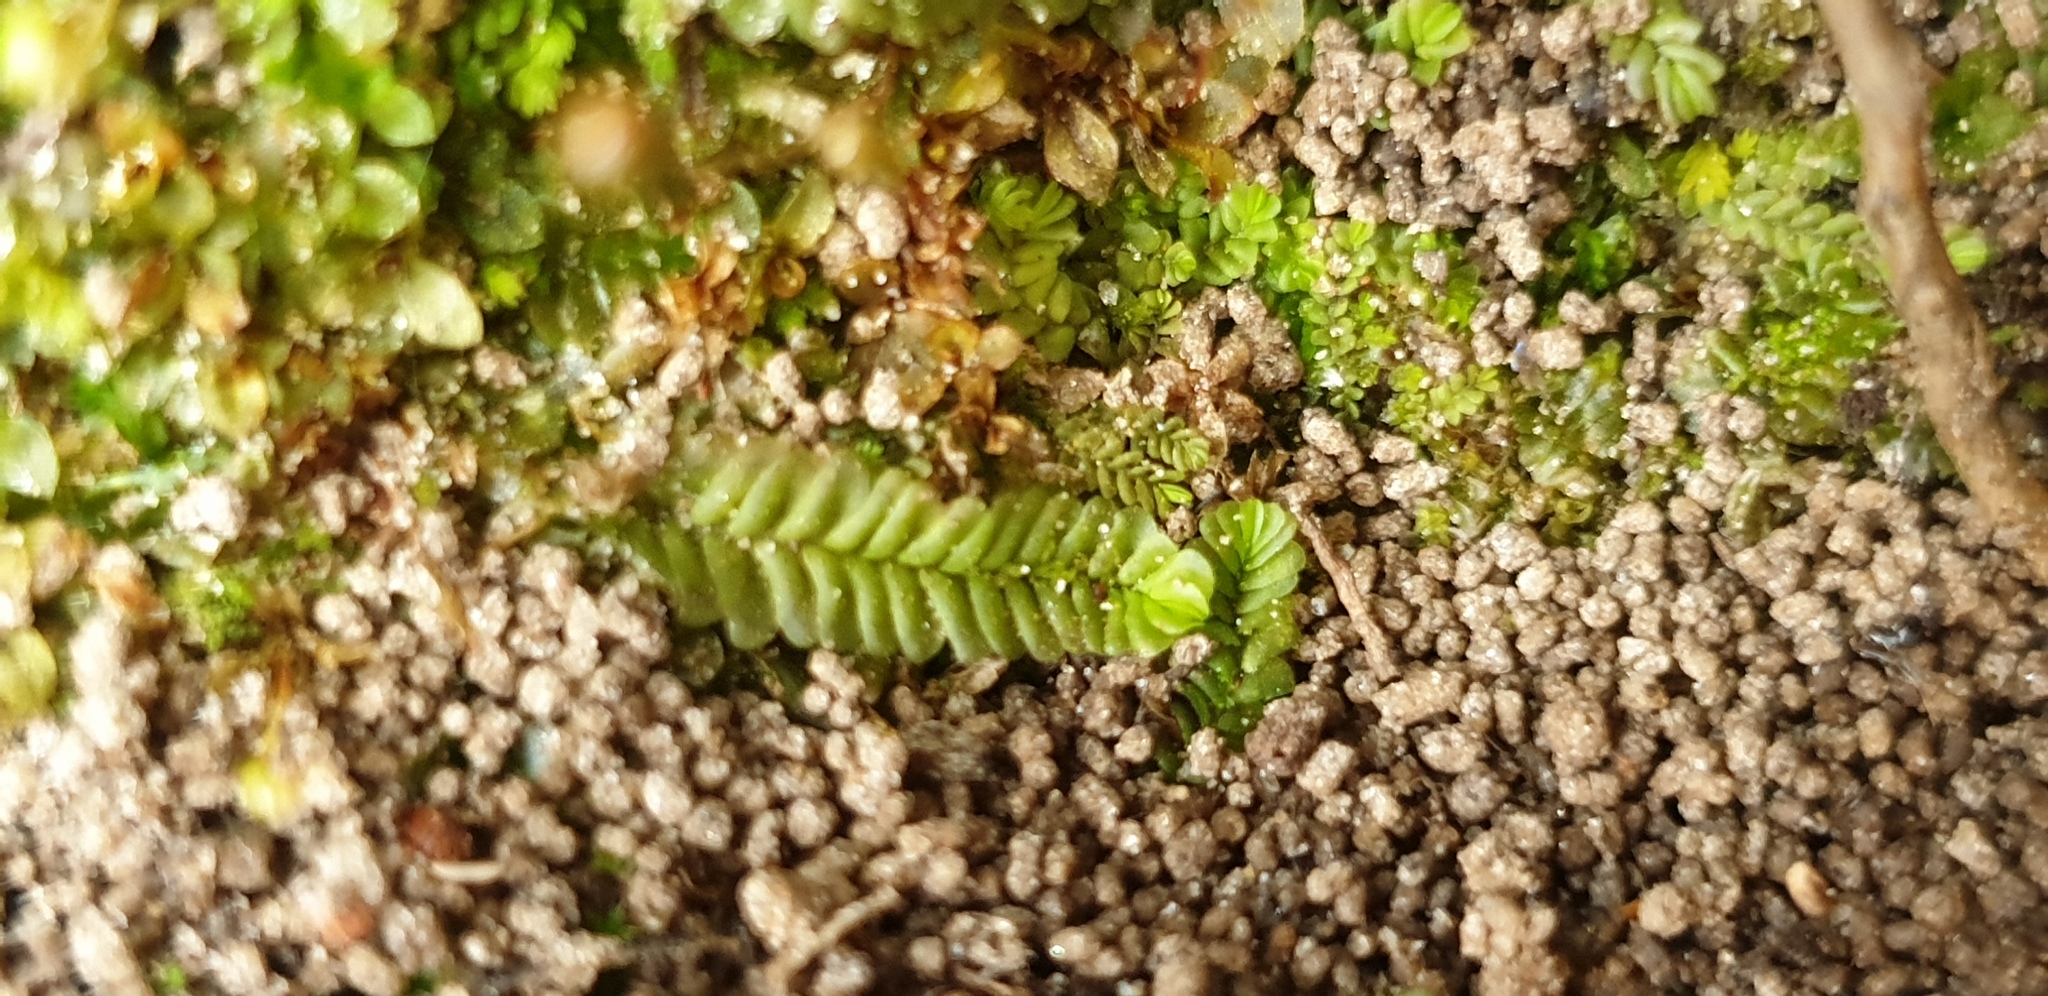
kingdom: Plantae
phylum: Marchantiophyta
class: Jungermanniopsida
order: Jungermanniales
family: Acrobolbaceae
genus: Lethocolea
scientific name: Lethocolea pansa
